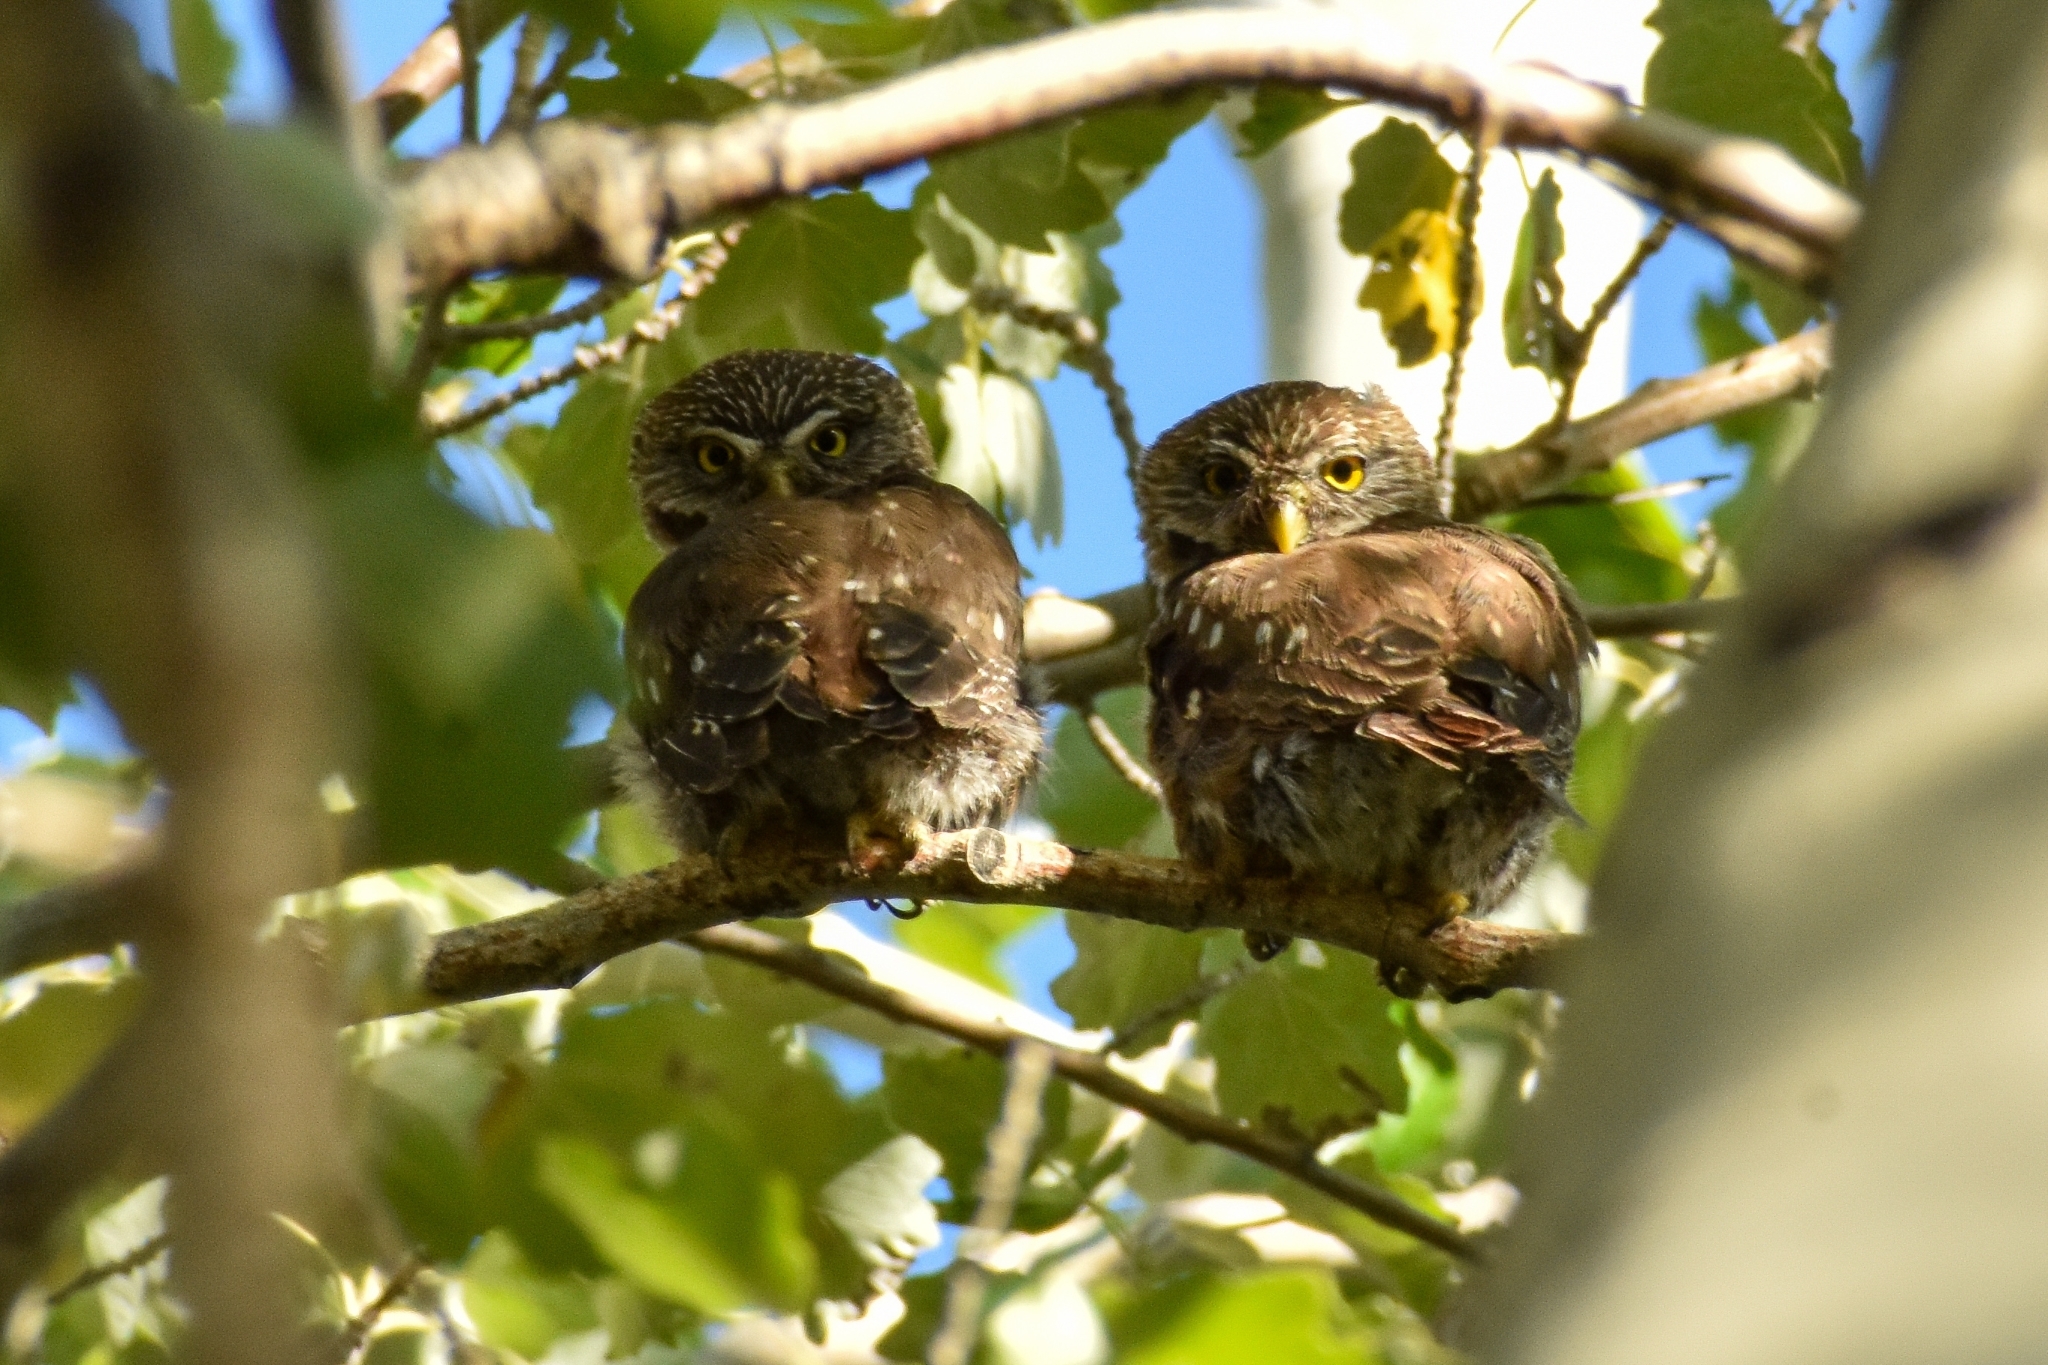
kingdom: Animalia
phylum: Chordata
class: Aves
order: Strigiformes
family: Strigidae
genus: Glaucidium
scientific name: Glaucidium nana
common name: Austral pygmy-owl
